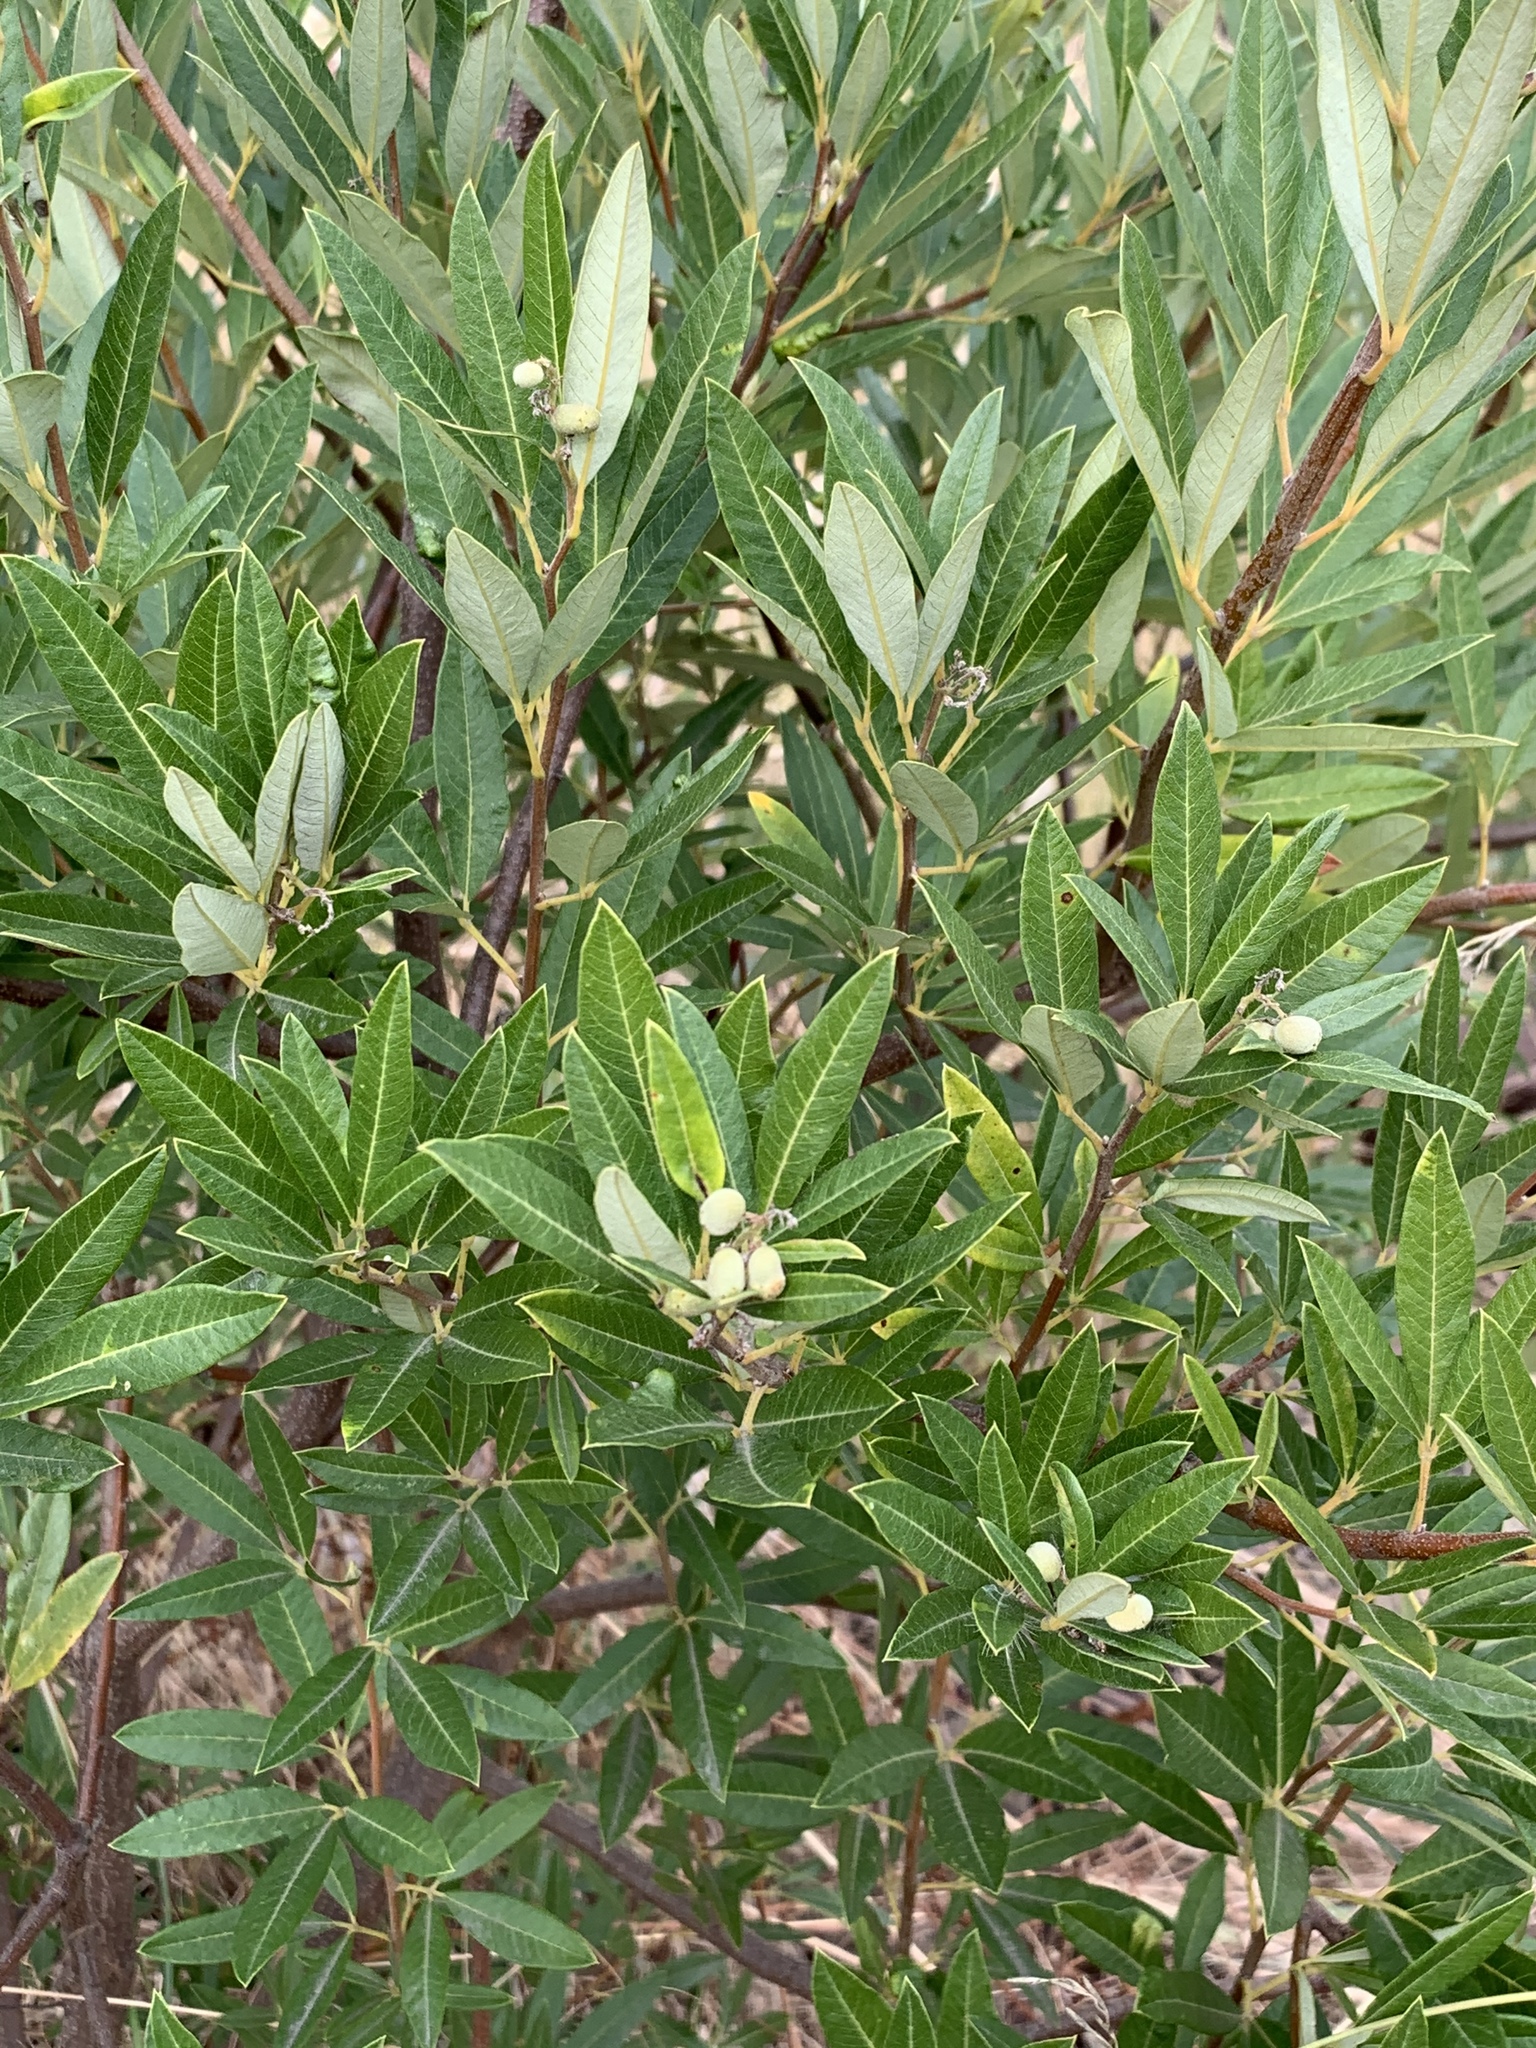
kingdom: Plantae
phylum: Tracheophyta
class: Magnoliopsida
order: Sapindales
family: Anacardiaceae
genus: Searsia
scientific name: Searsia angustifolia
